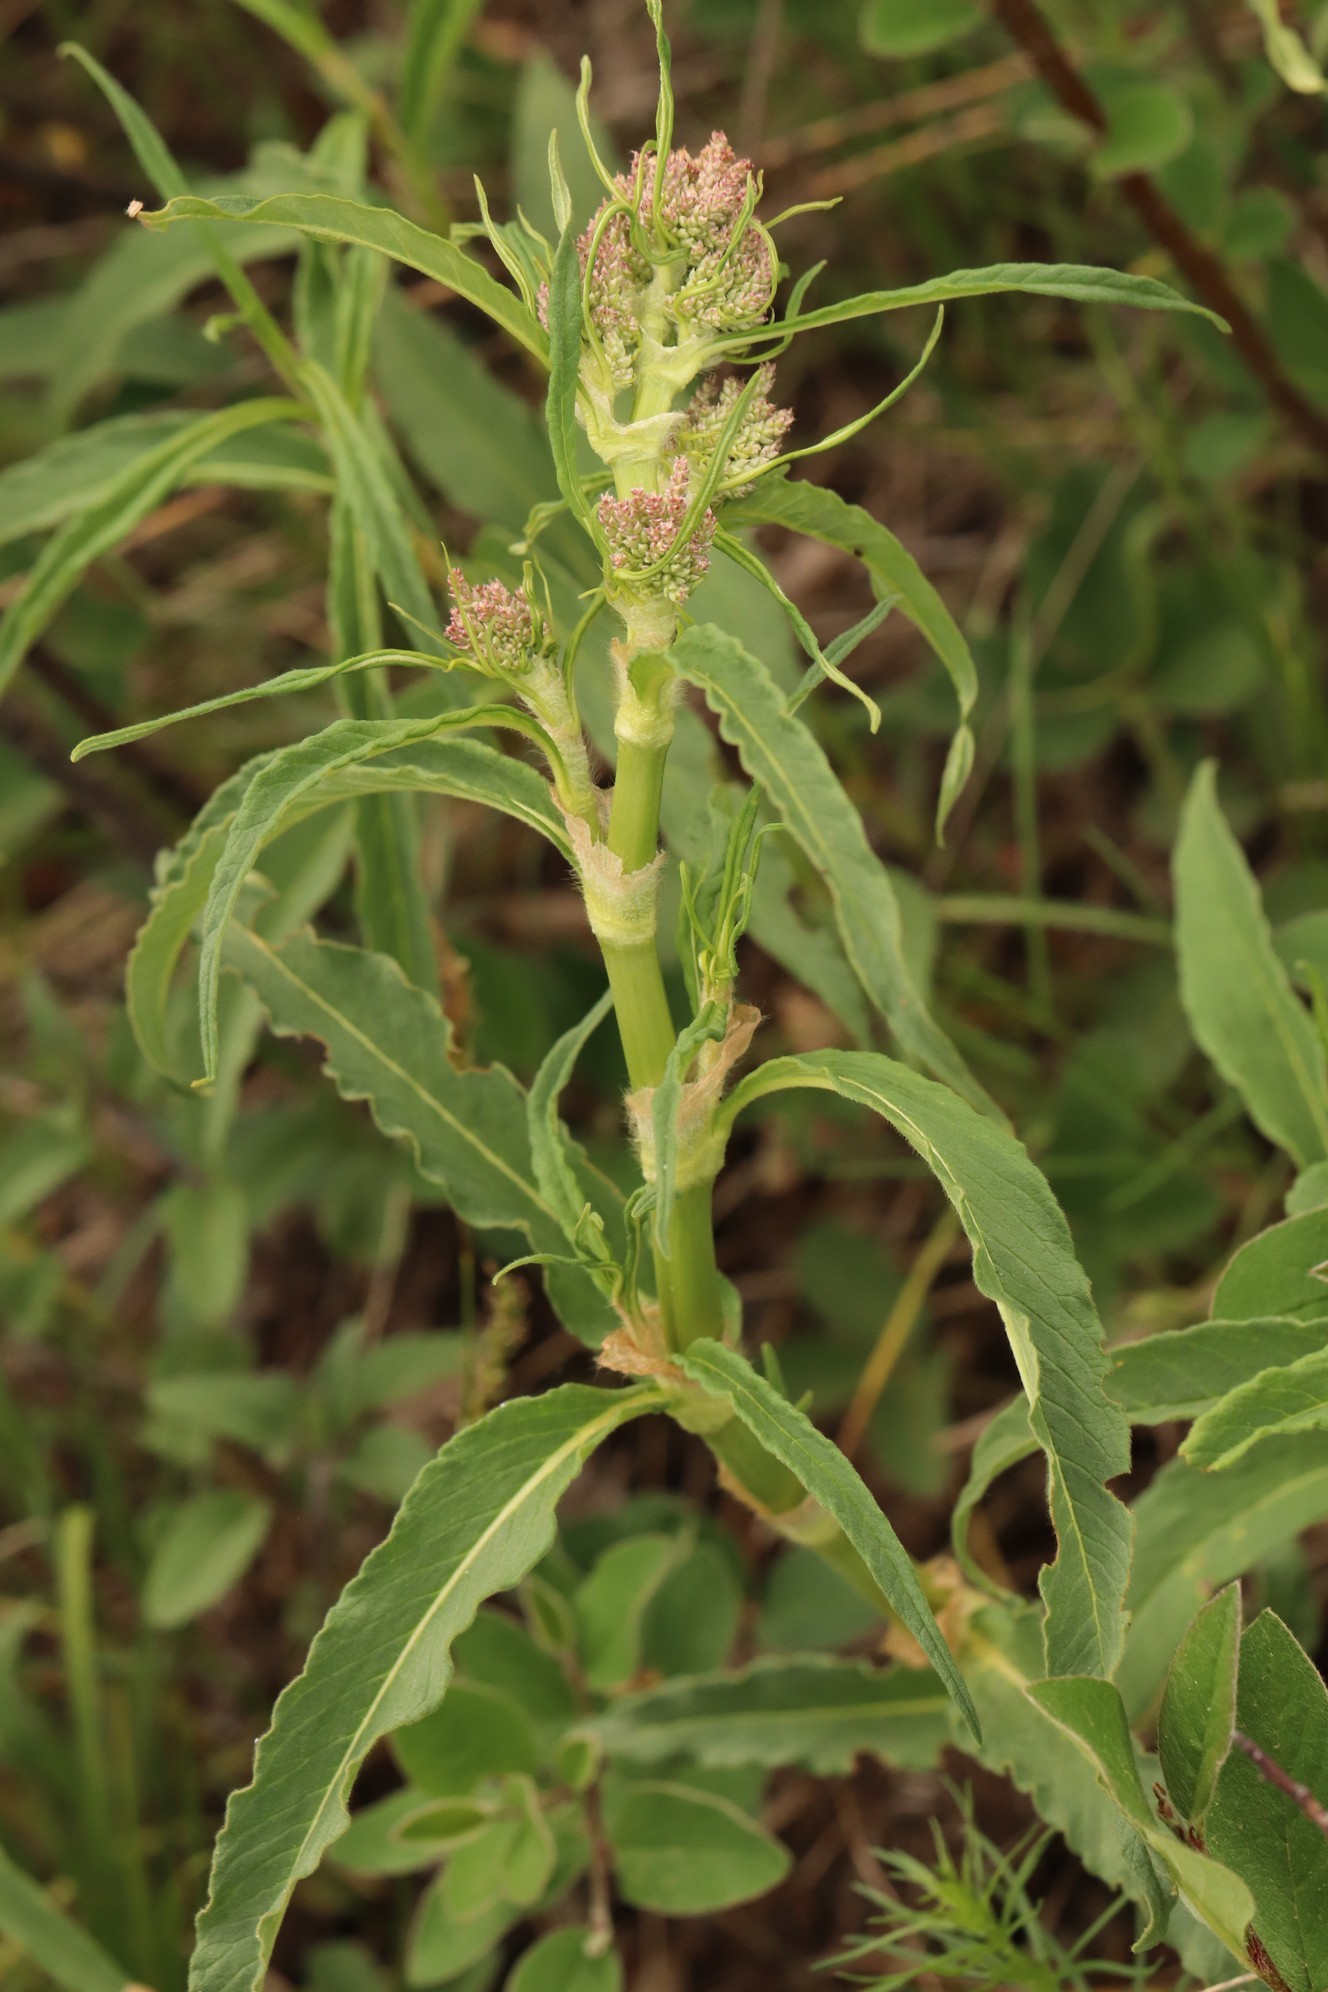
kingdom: Plantae
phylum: Tracheophyta
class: Magnoliopsida
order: Caryophyllales
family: Polygonaceae
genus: Koenigia
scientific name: Koenigia alpina
